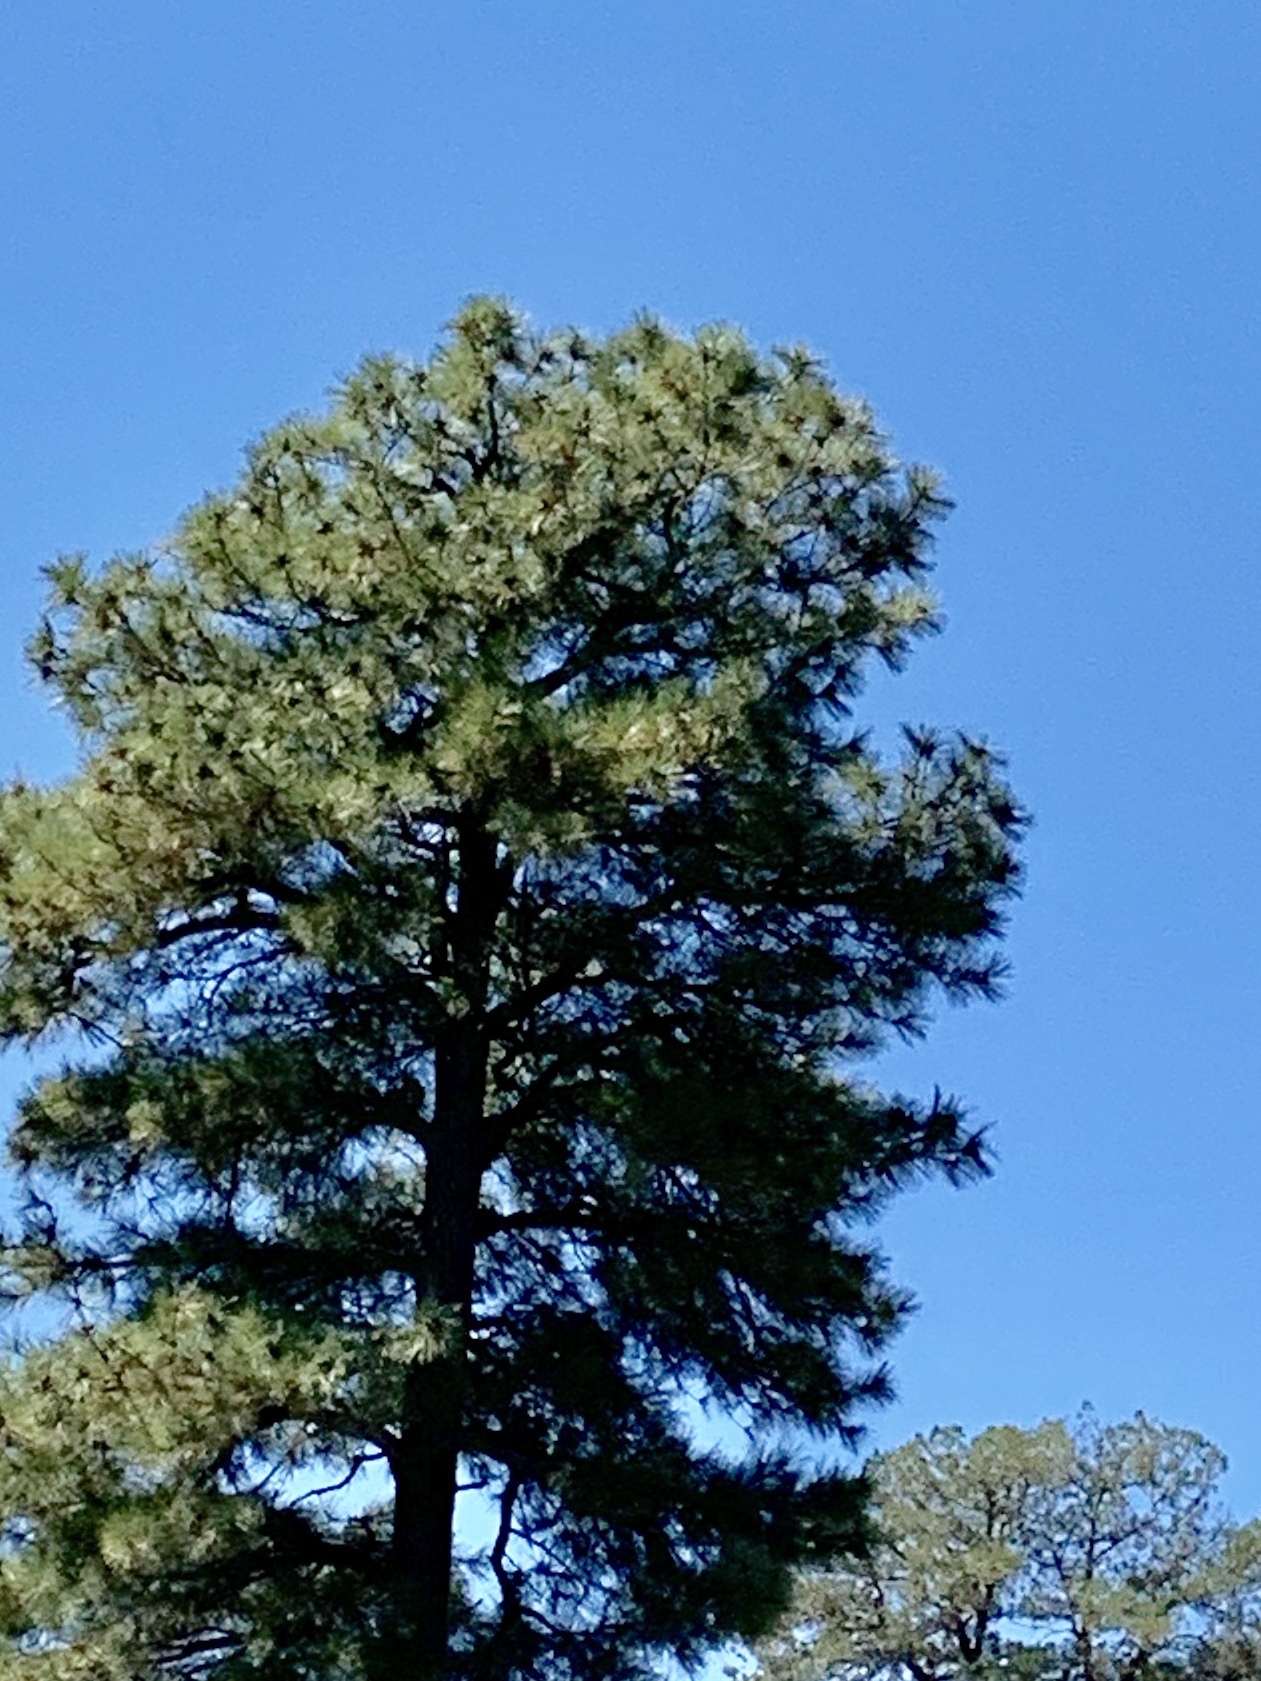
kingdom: Plantae
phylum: Tracheophyta
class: Pinopsida
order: Pinales
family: Pinaceae
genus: Pinus
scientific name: Pinus ponderosa
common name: Western yellow-pine
